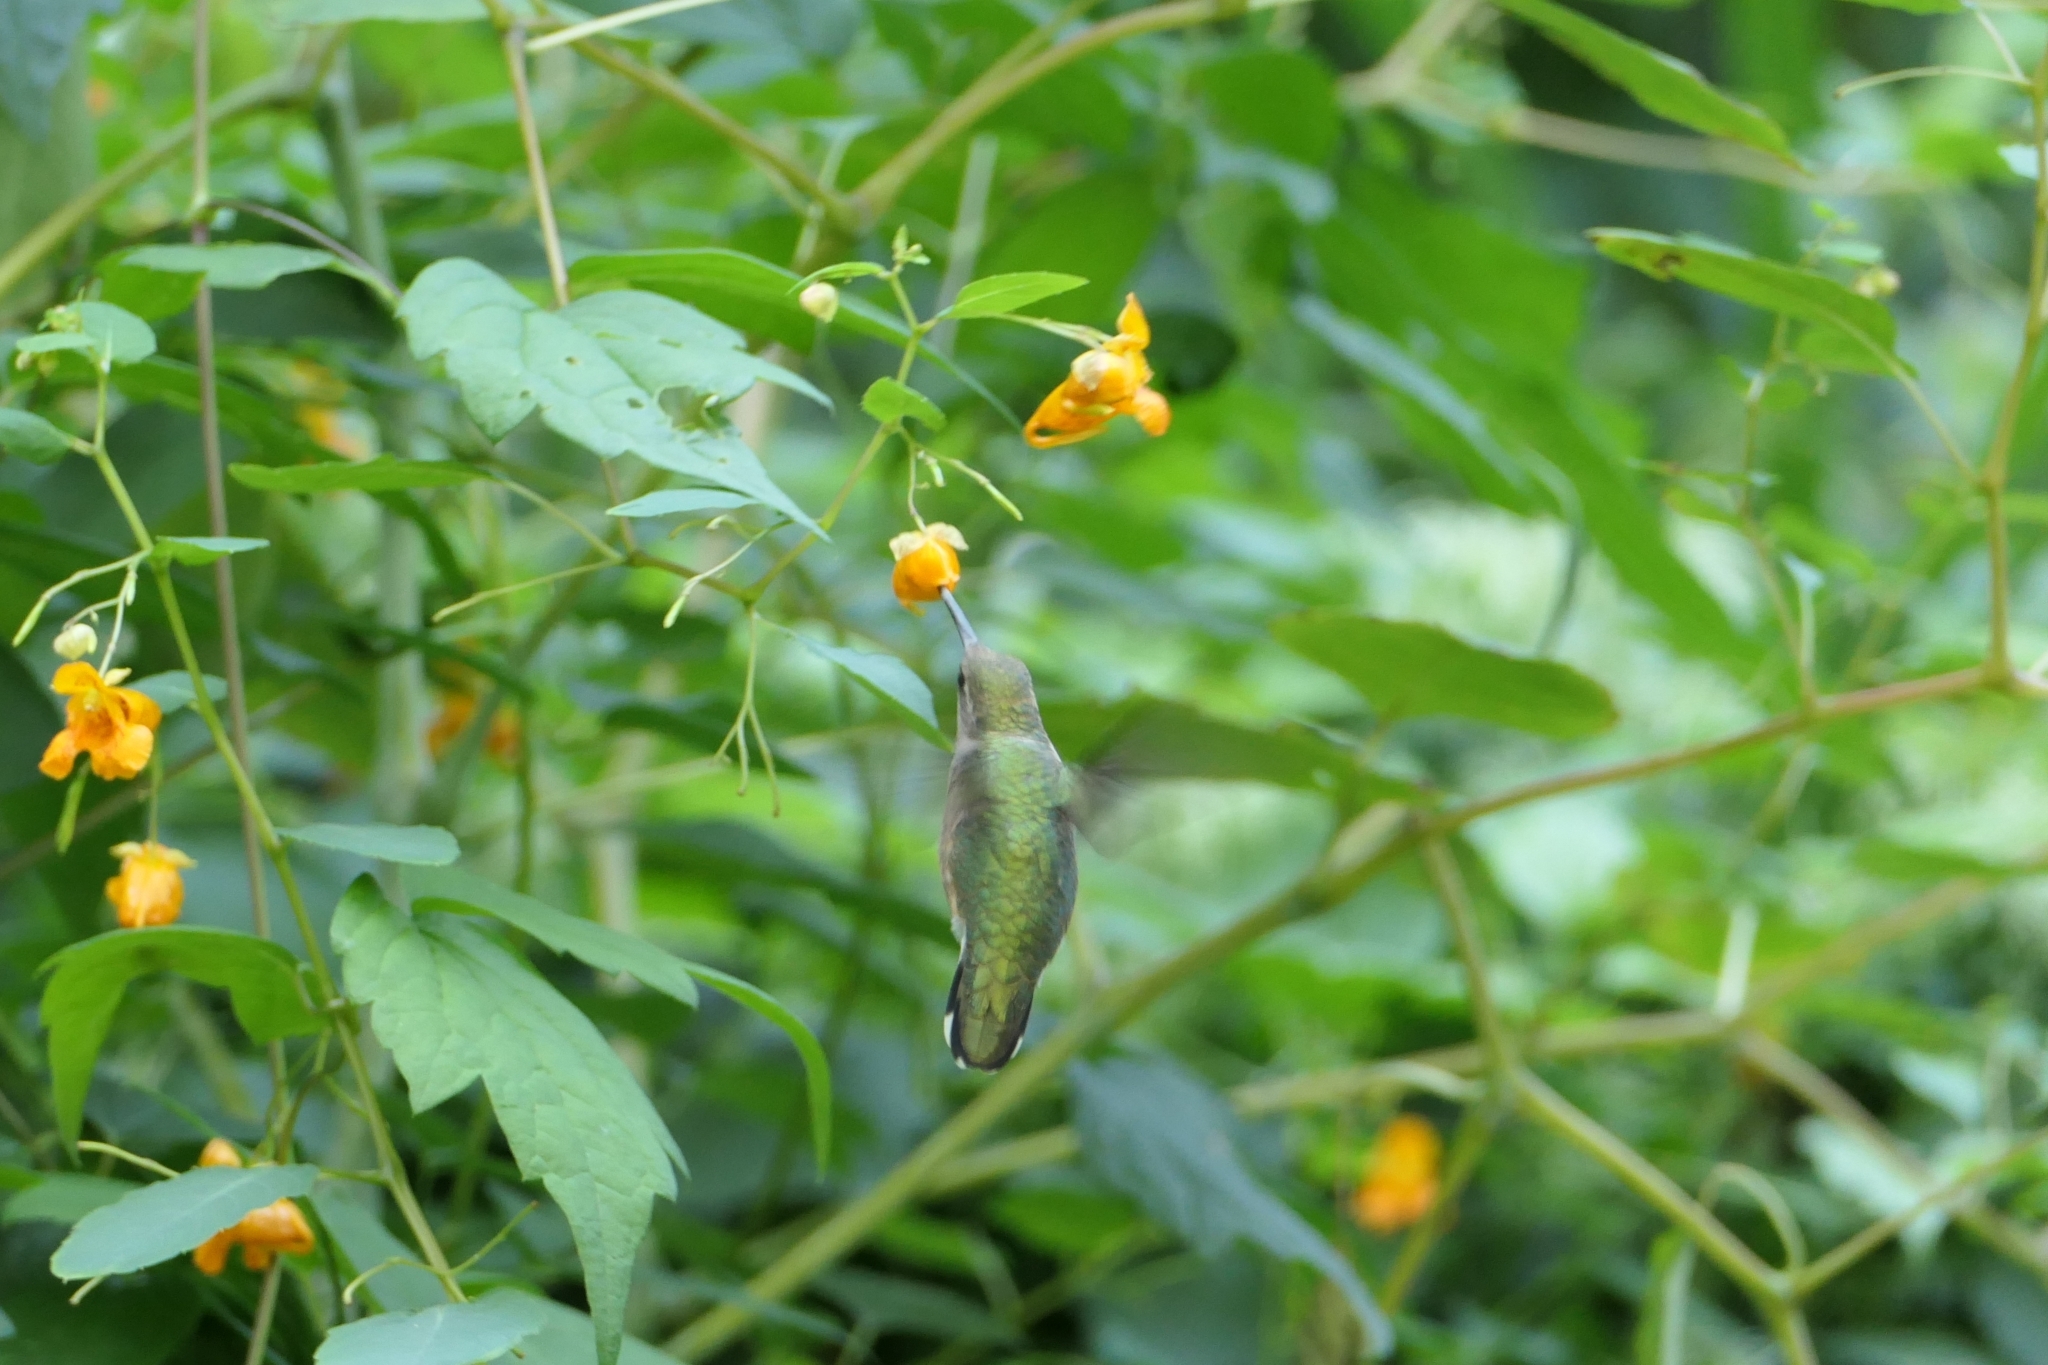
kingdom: Animalia
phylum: Chordata
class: Aves
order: Apodiformes
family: Trochilidae
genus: Archilochus
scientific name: Archilochus colubris
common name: Ruby-throated hummingbird
